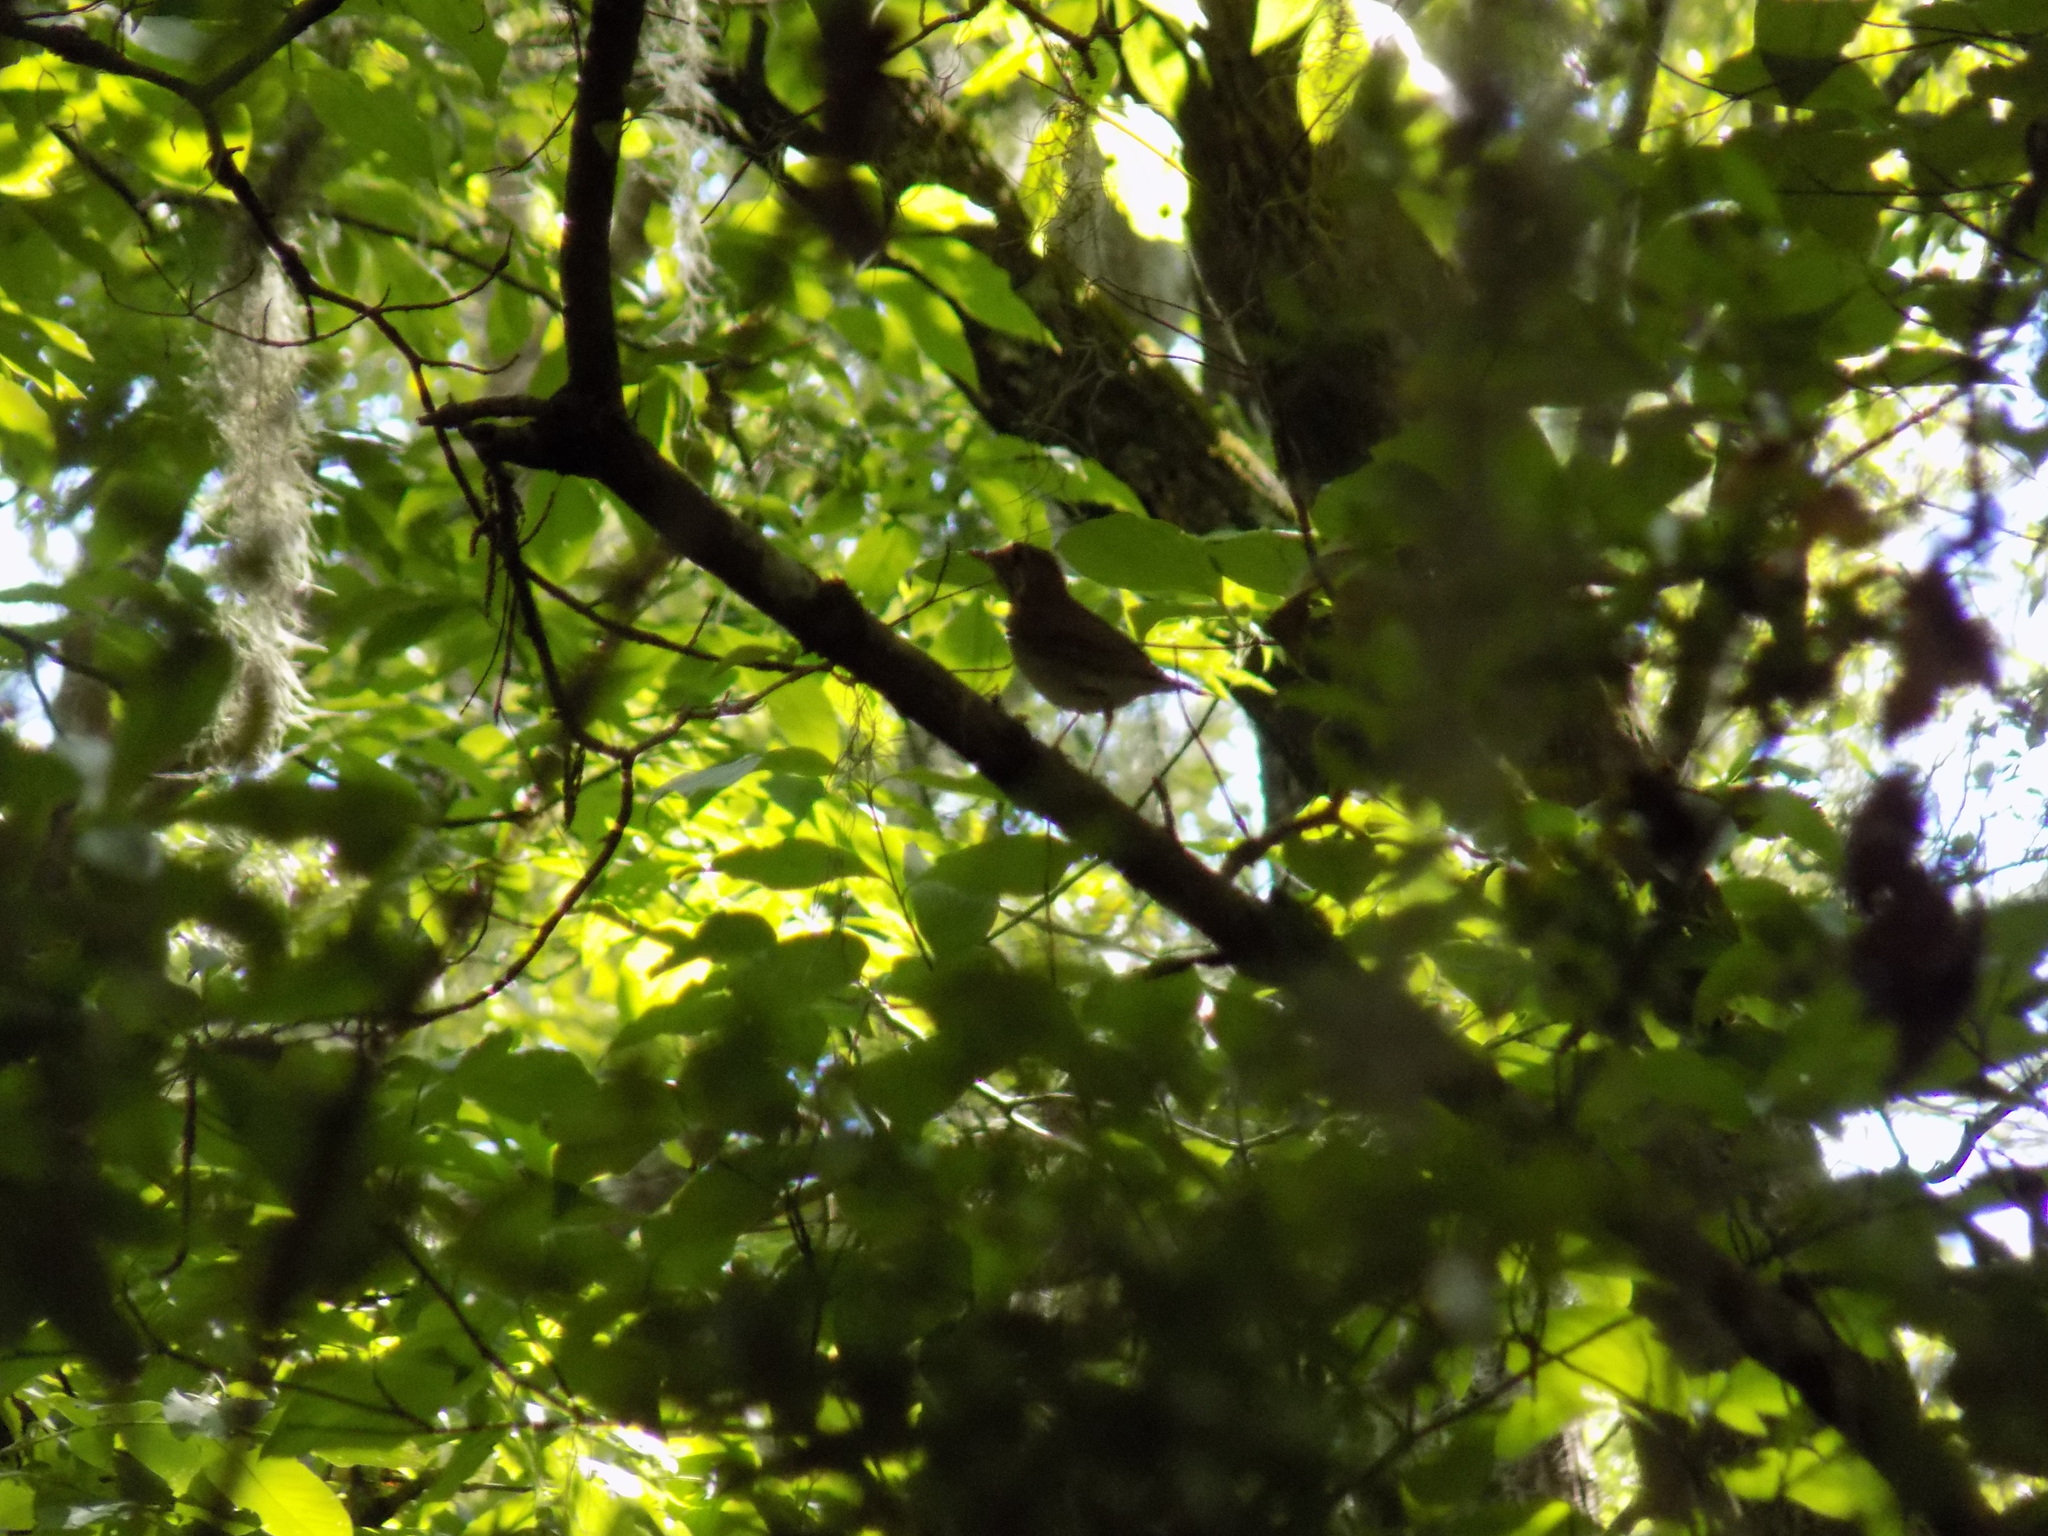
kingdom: Animalia
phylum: Chordata
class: Aves
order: Passeriformes
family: Turdidae
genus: Catharus
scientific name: Catharus
